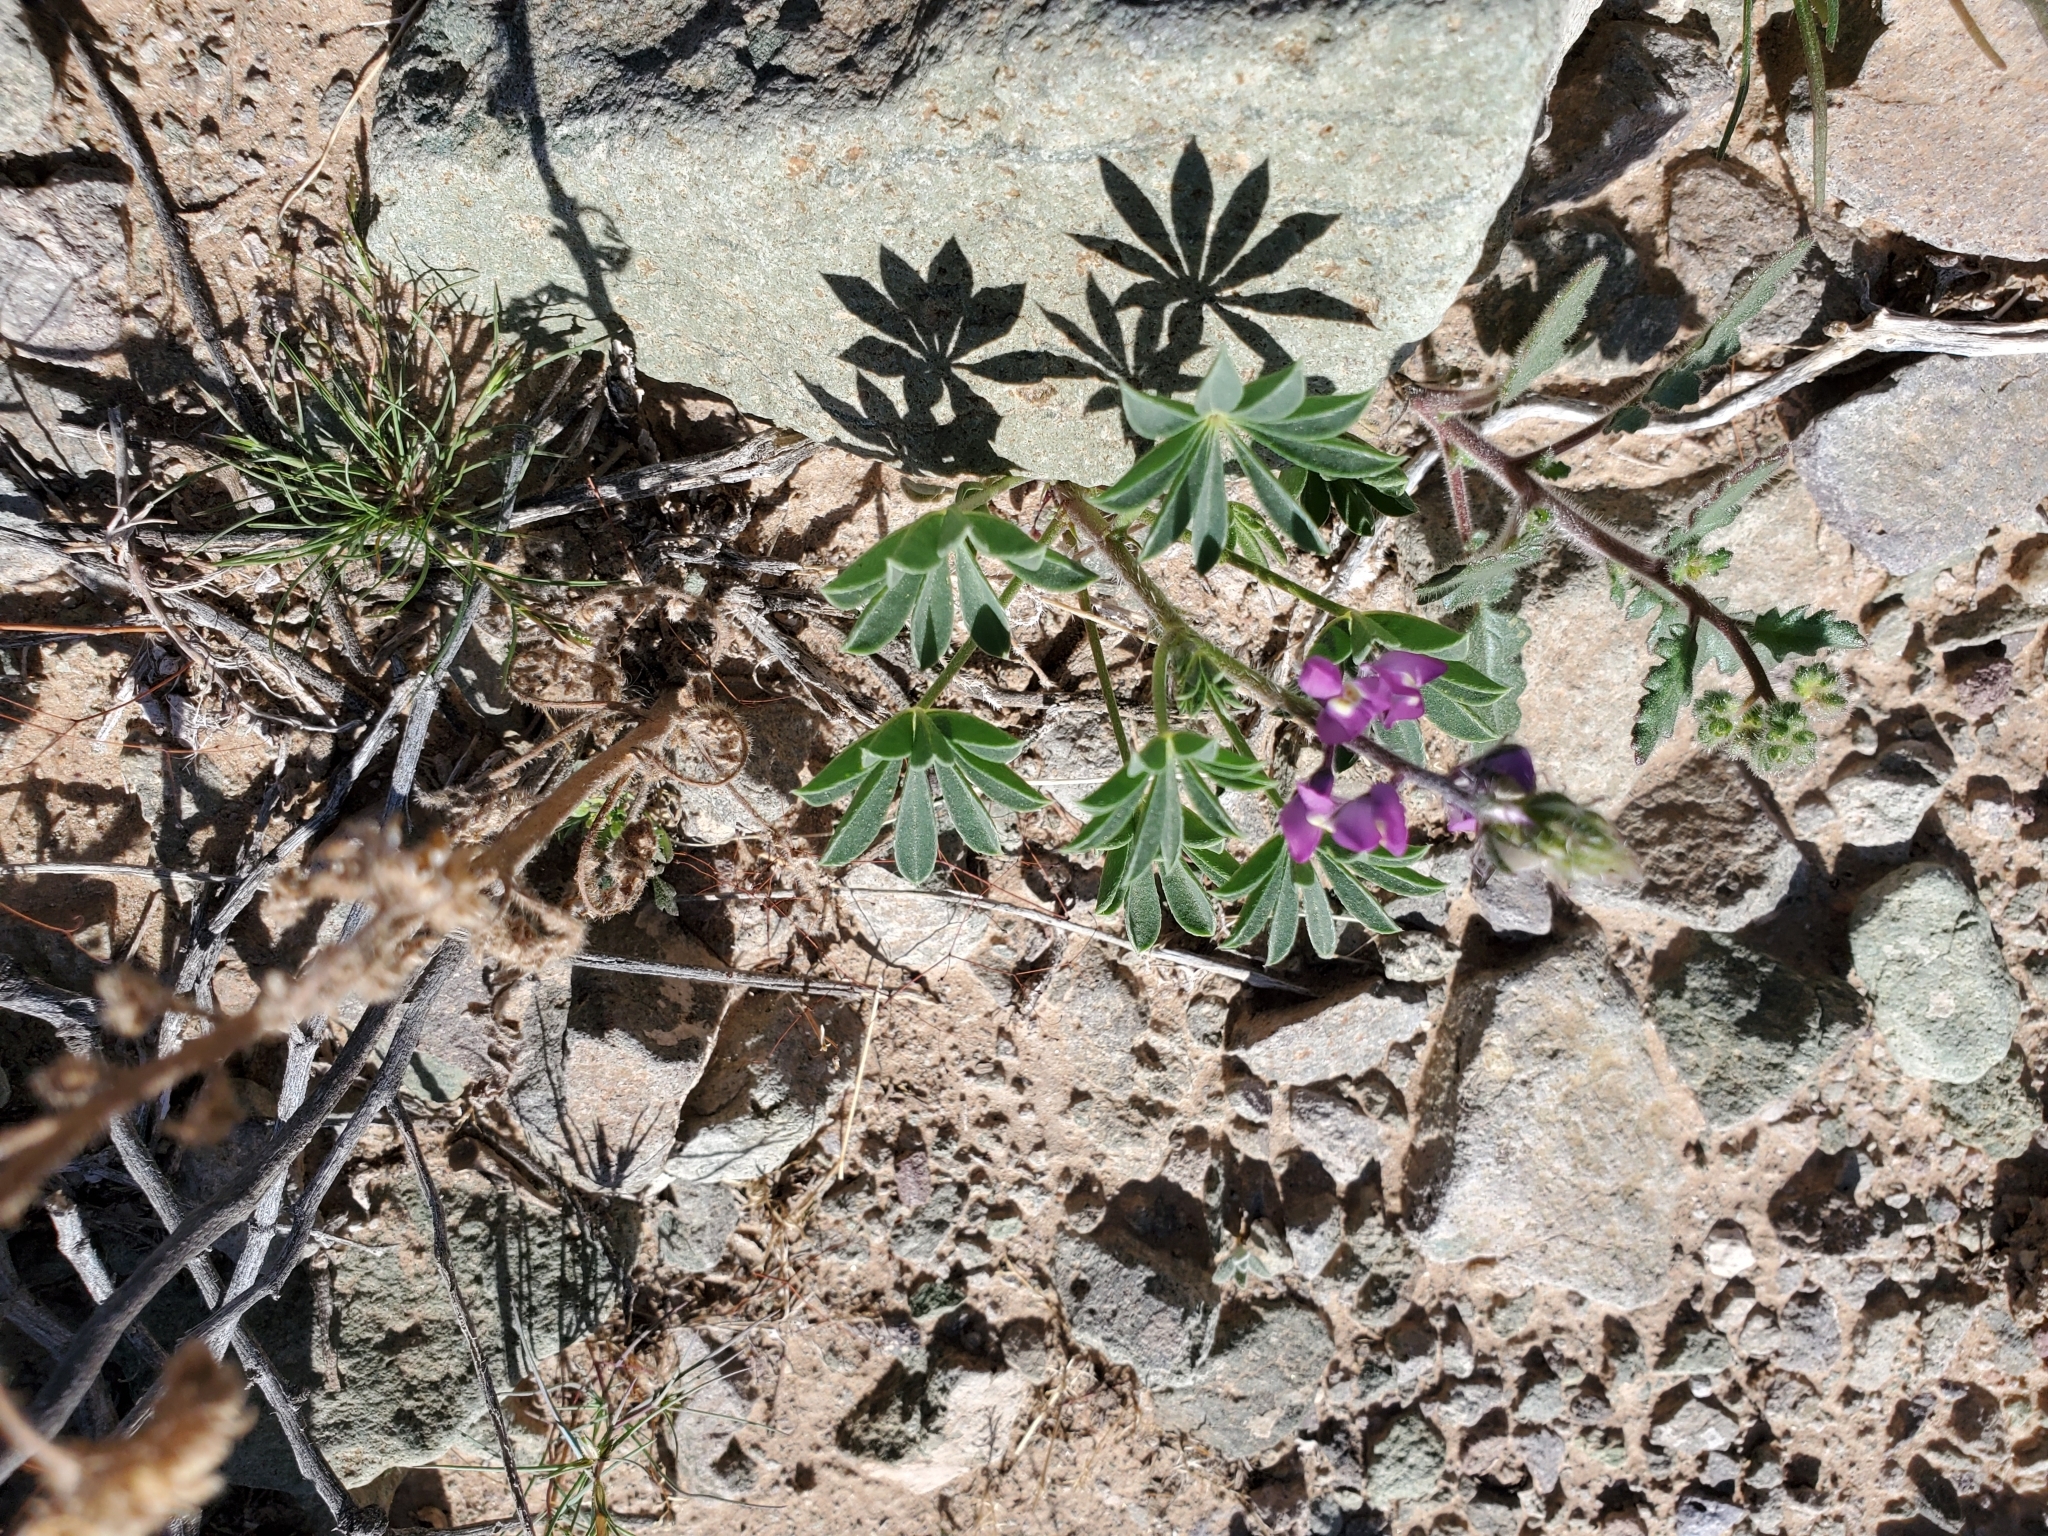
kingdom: Plantae
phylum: Tracheophyta
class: Magnoliopsida
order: Fabales
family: Fabaceae
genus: Lupinus
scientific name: Lupinus arizonicus
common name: Arizona lupine
